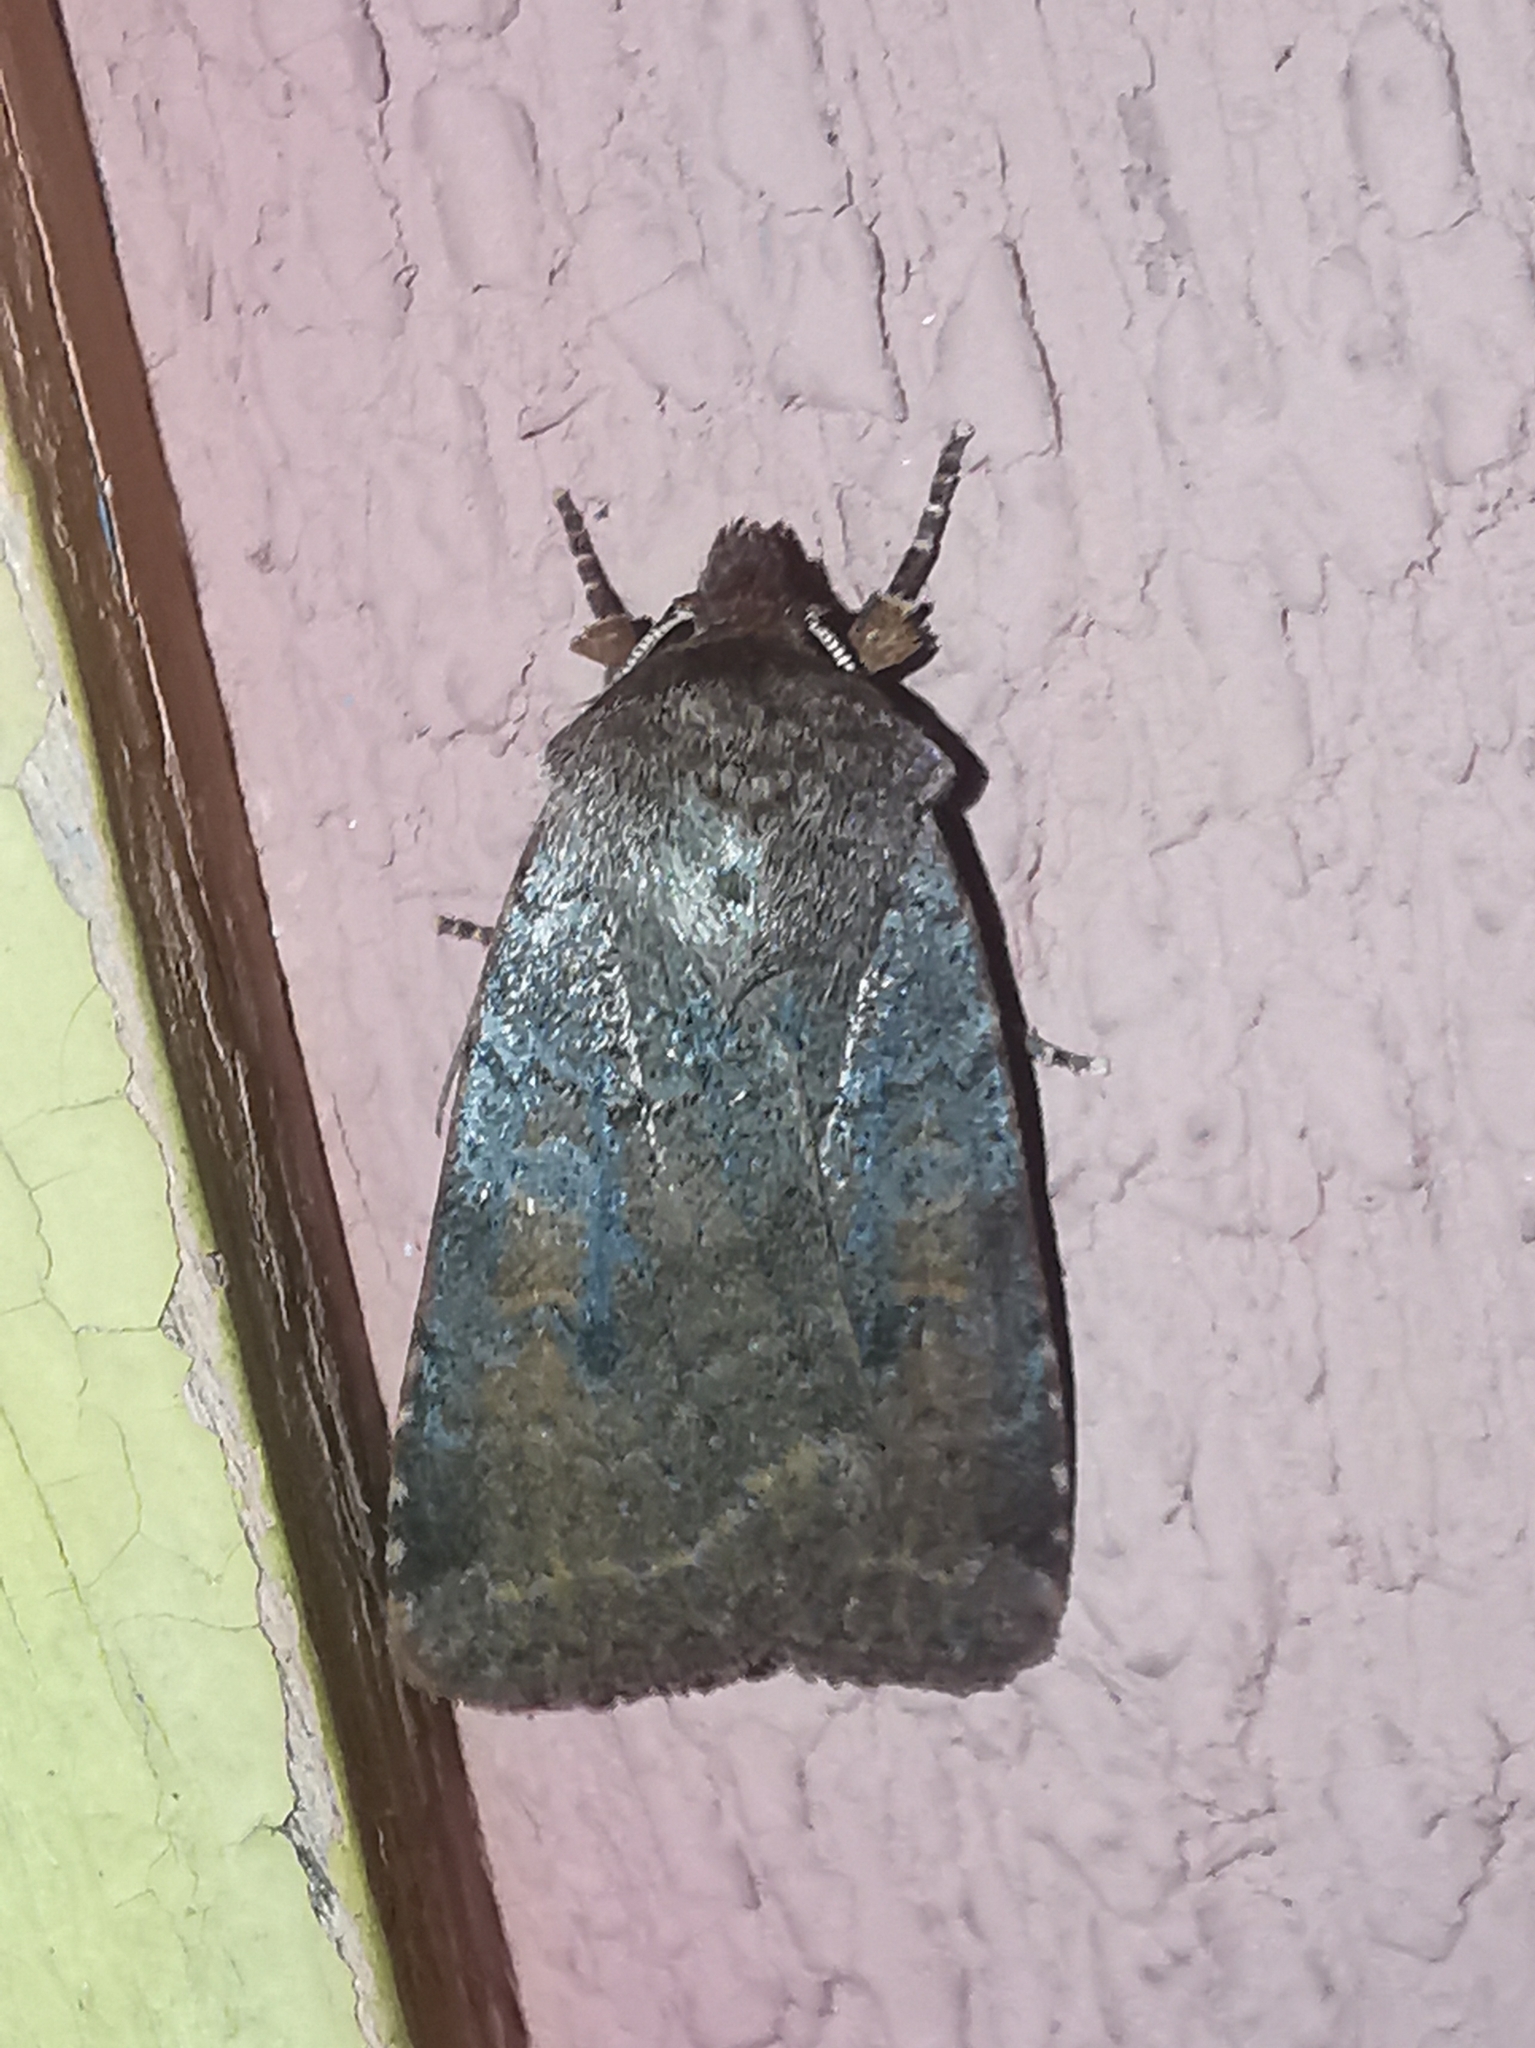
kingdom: Animalia
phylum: Arthropoda
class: Insecta
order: Lepidoptera
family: Noctuidae
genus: Protolampra
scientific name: Protolampra sobrina
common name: Cousin german
